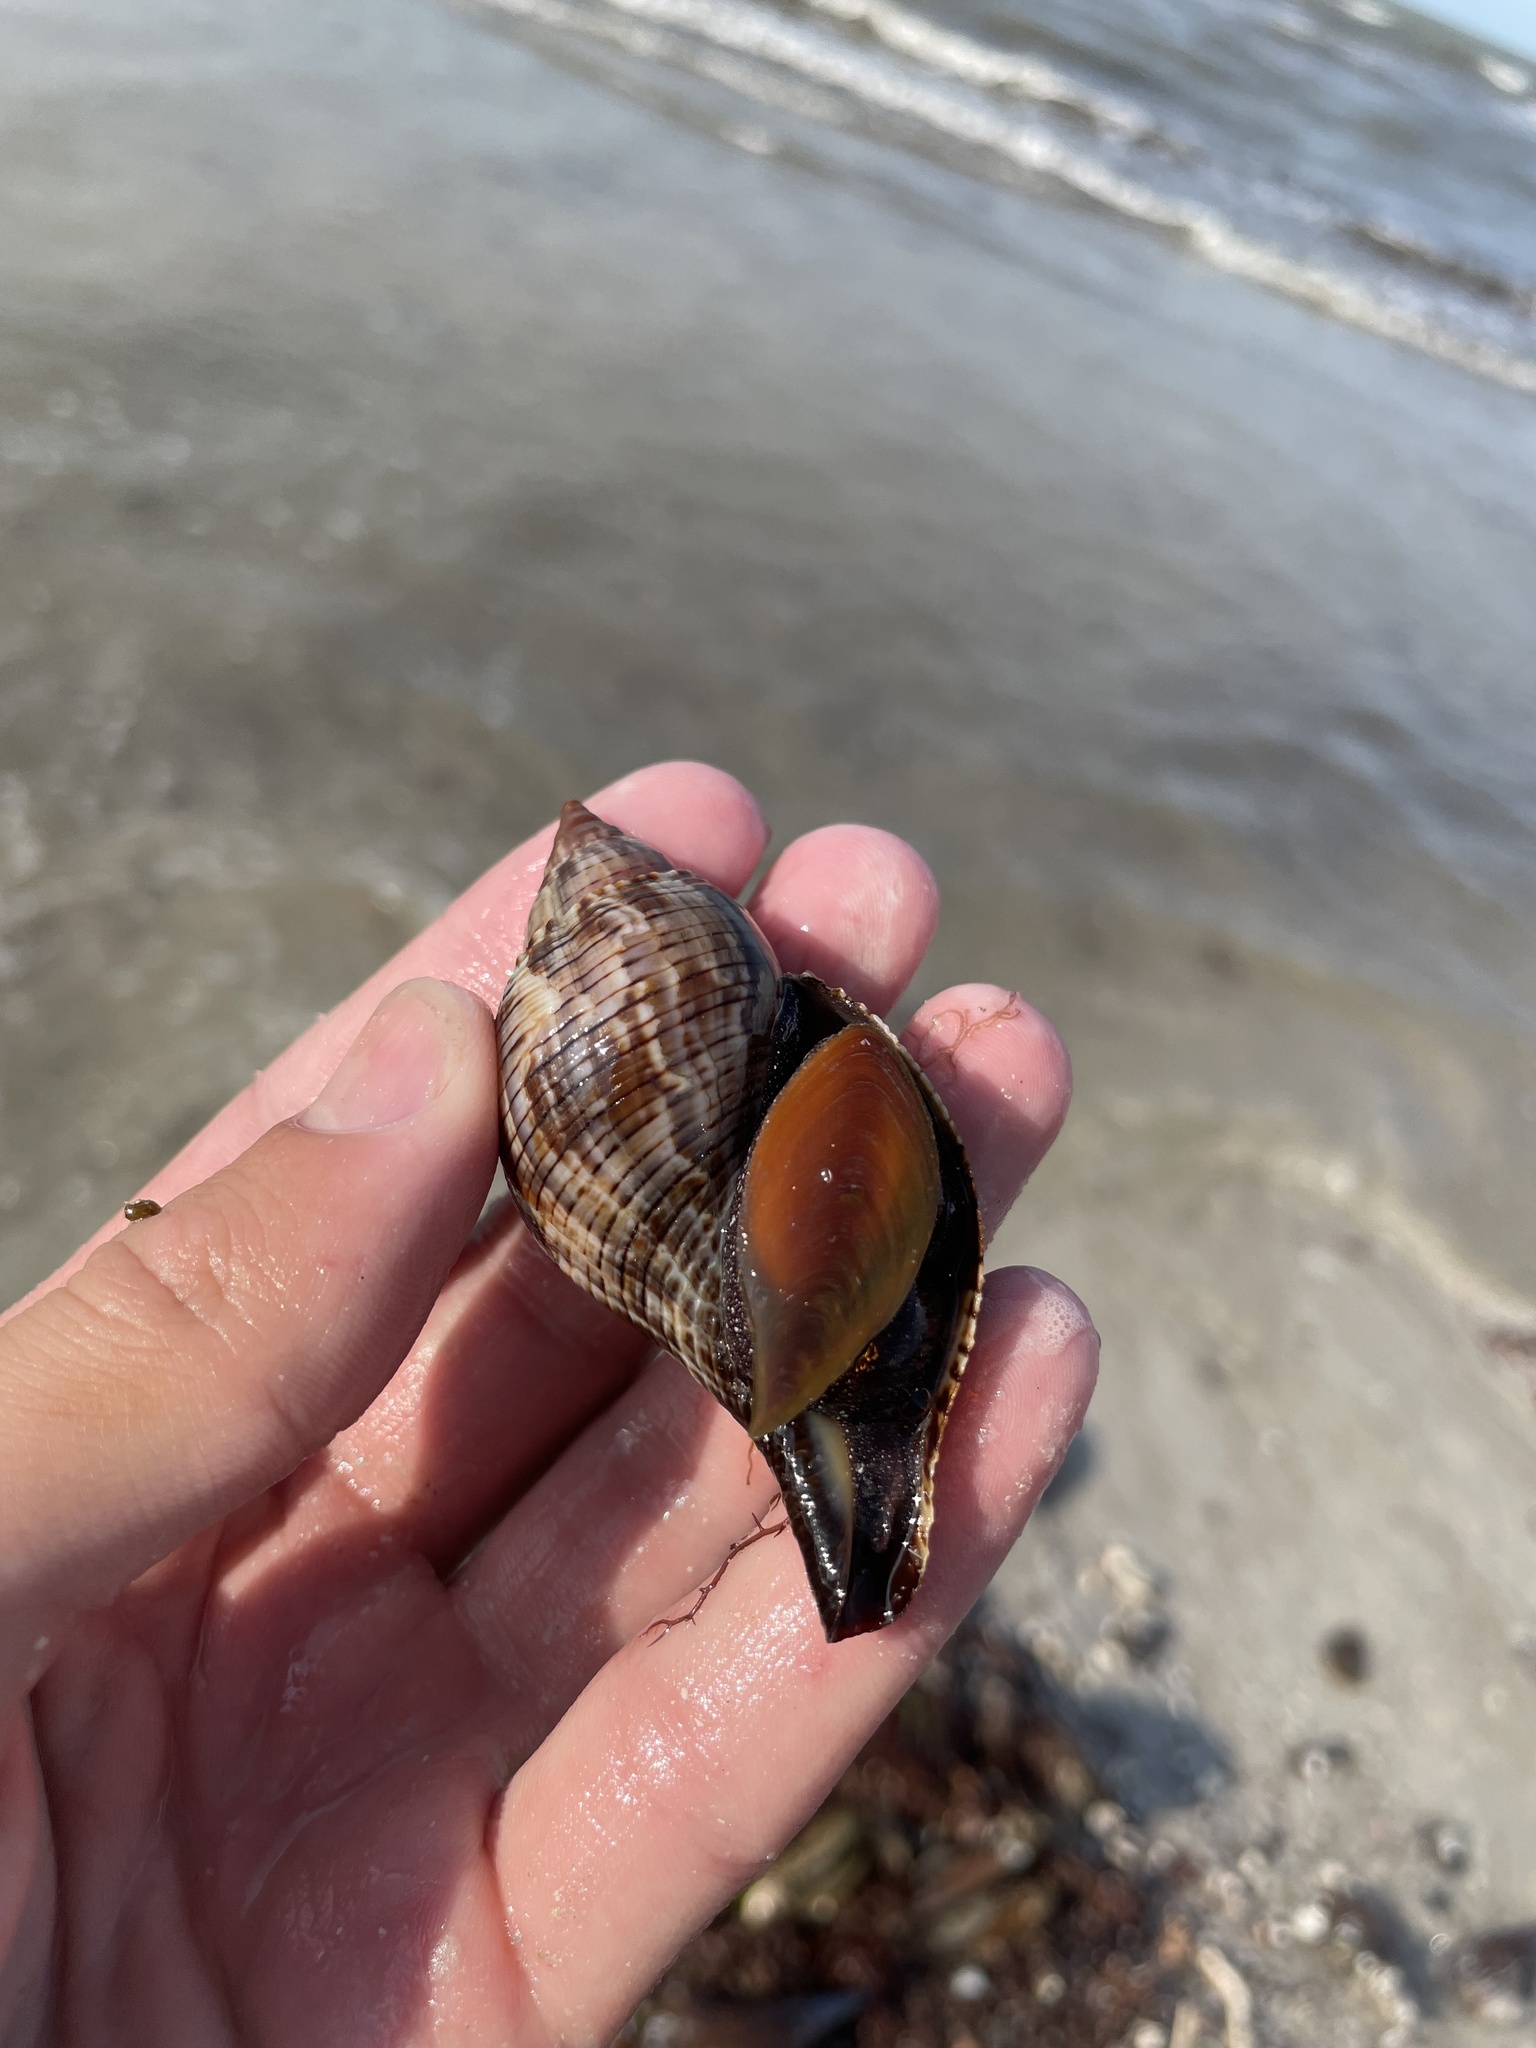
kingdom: Animalia
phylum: Mollusca
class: Gastropoda
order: Neogastropoda
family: Fasciolariidae
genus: Fasciolaria
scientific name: Fasciolaria tulipa
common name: True tulip
